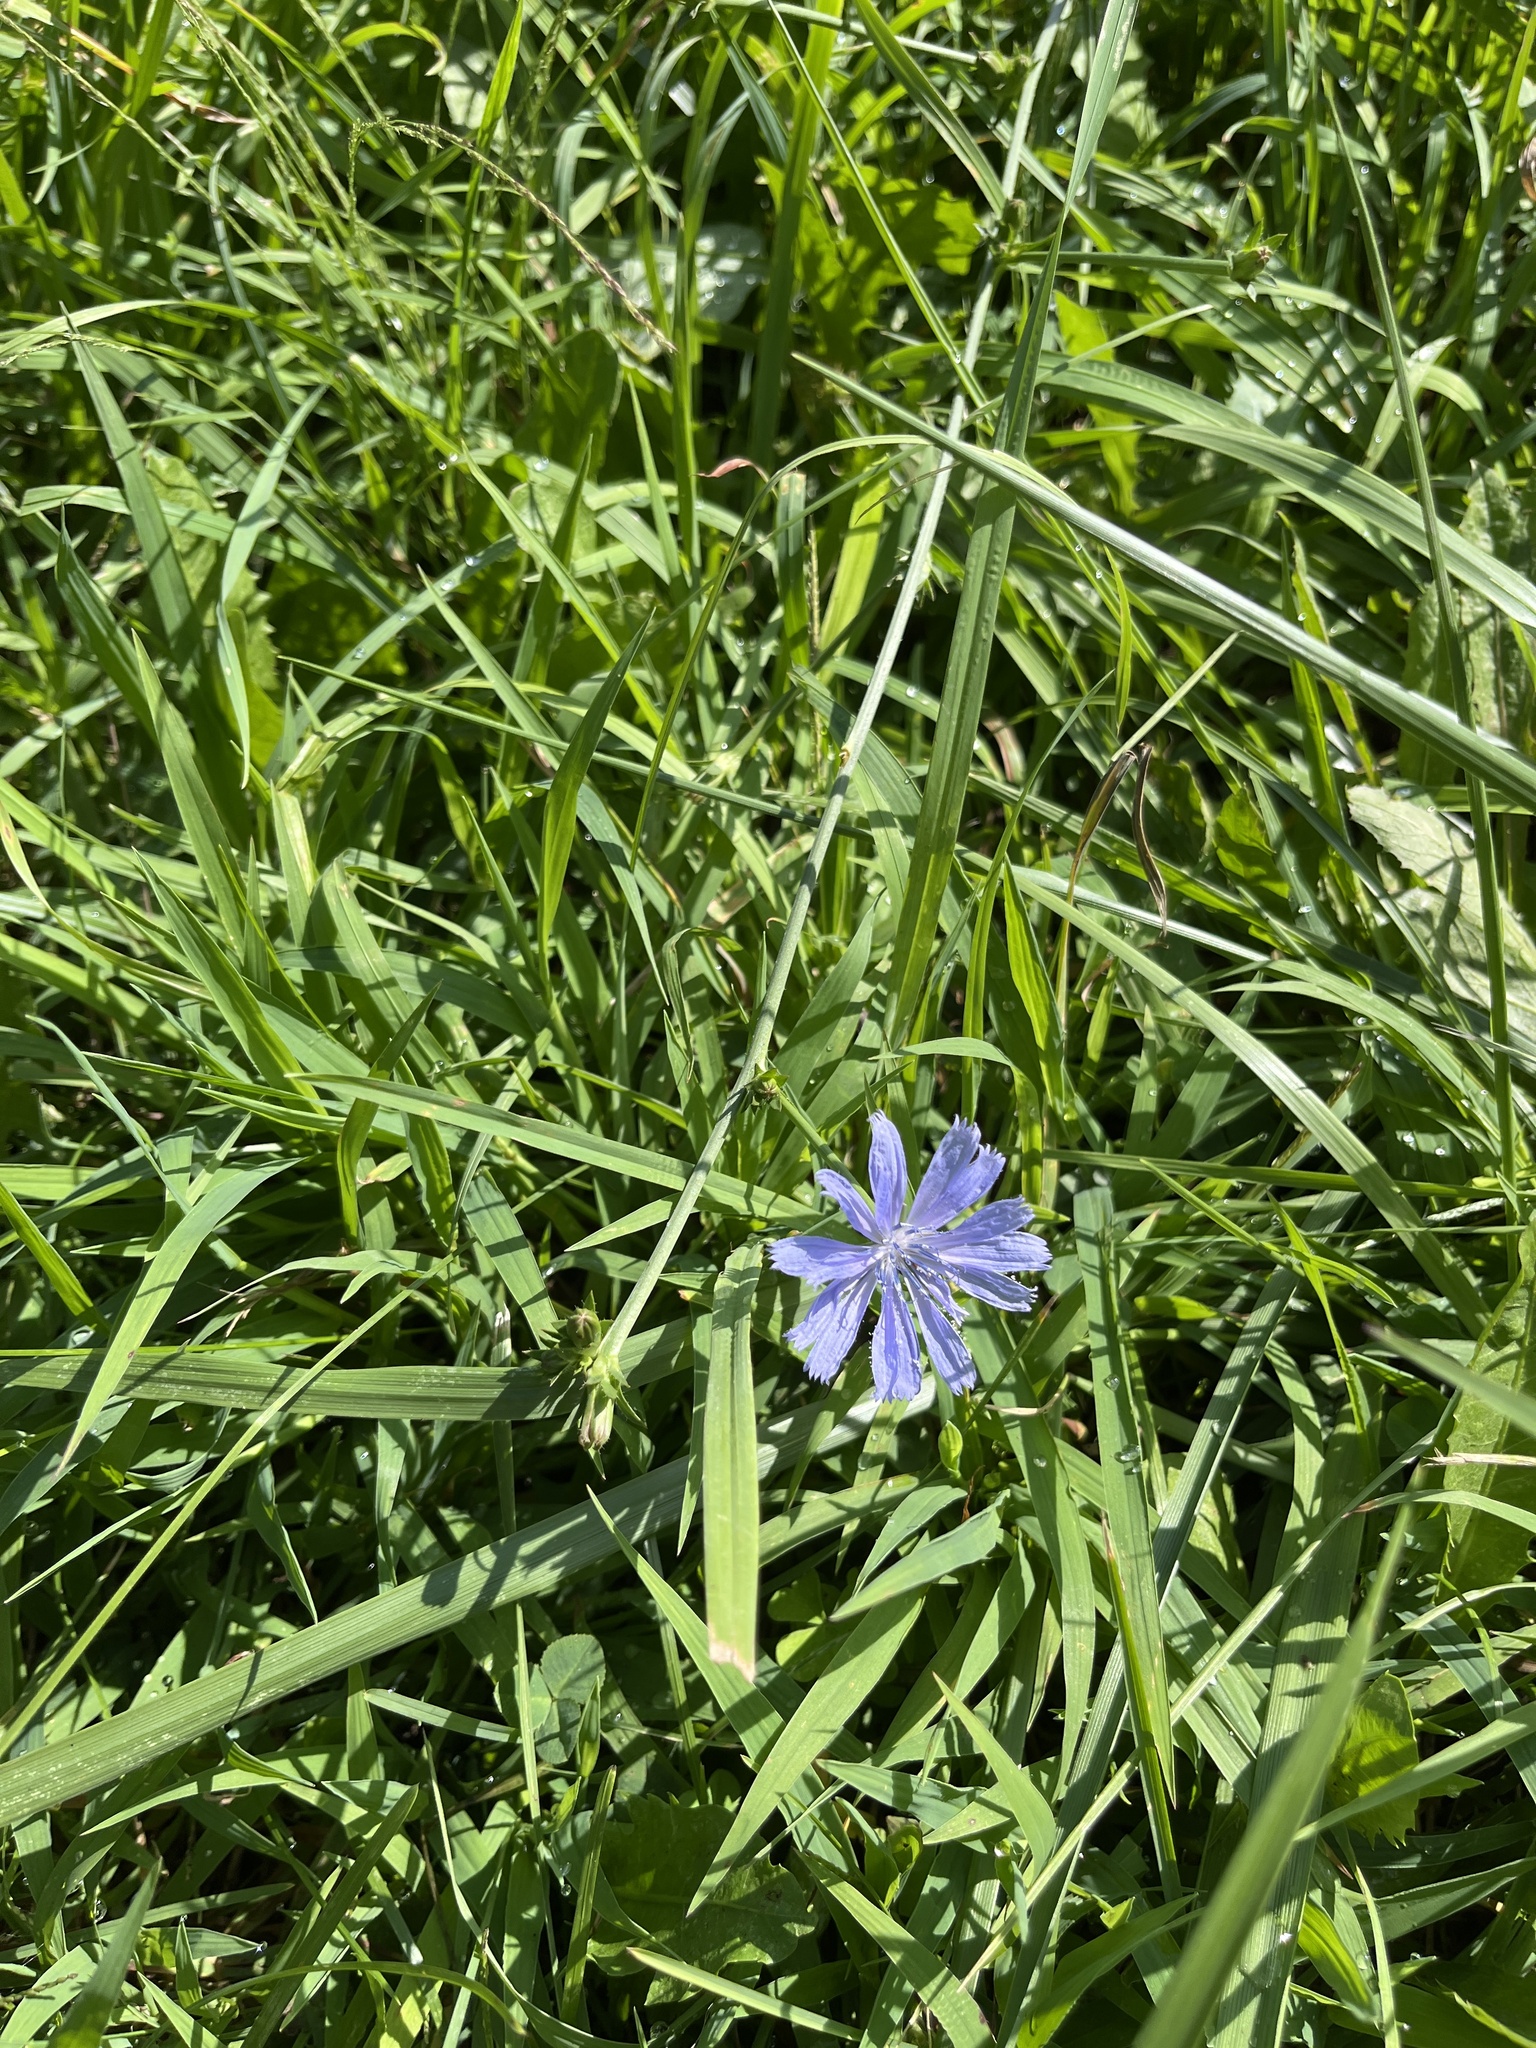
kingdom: Plantae
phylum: Tracheophyta
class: Magnoliopsida
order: Asterales
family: Asteraceae
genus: Cichorium
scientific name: Cichorium intybus
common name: Chicory
